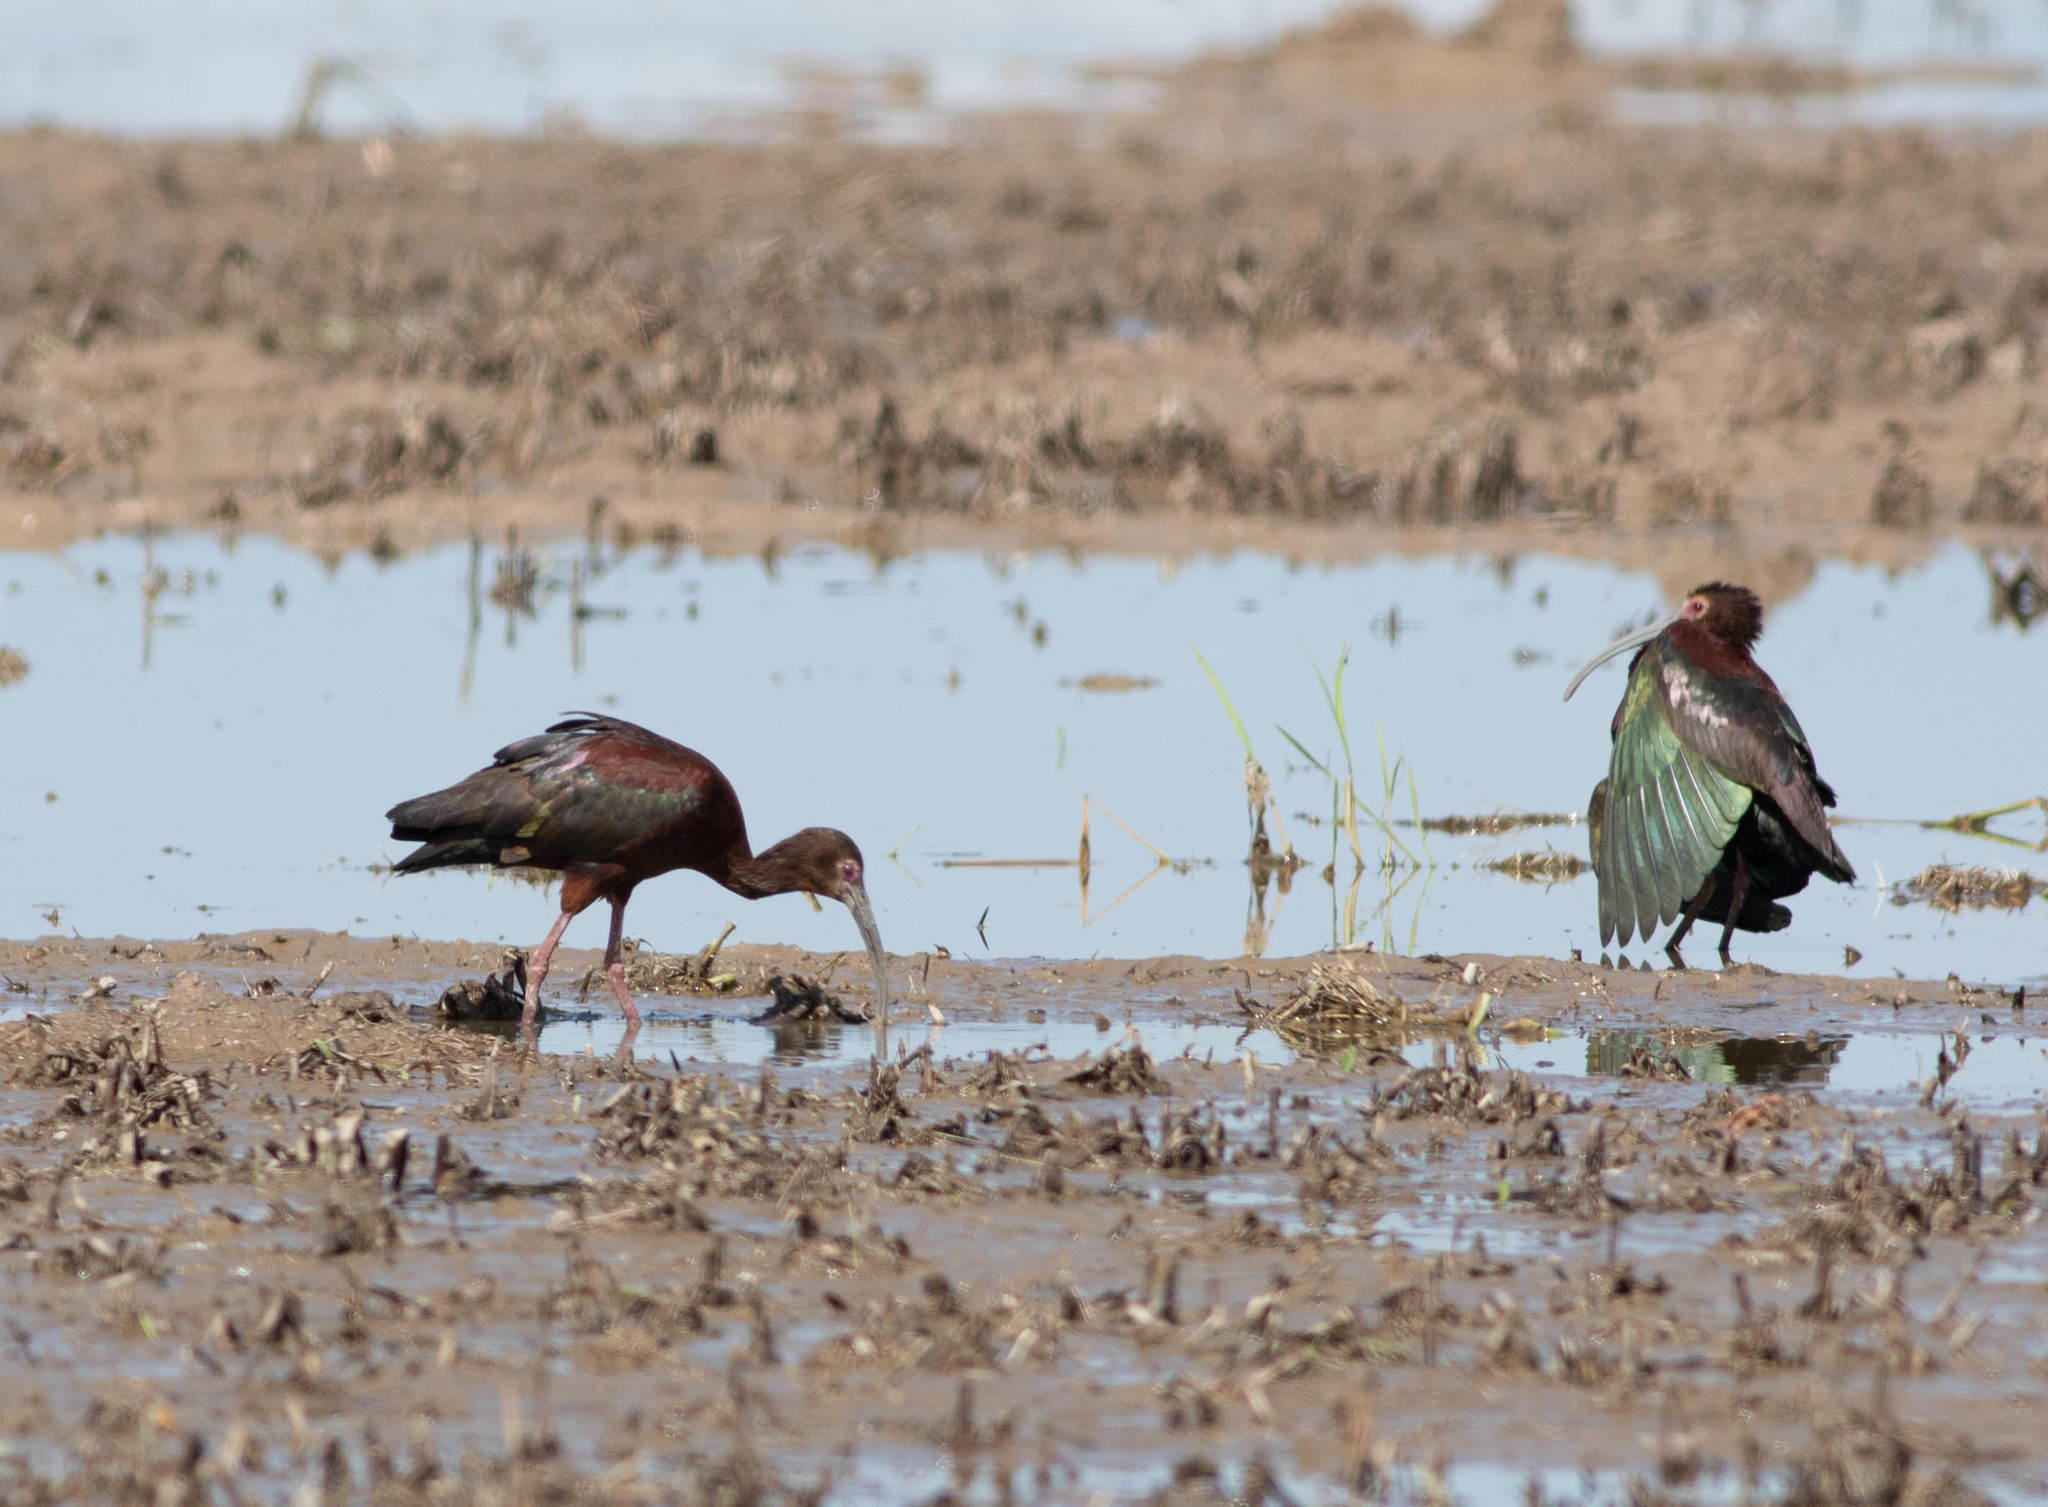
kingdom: Animalia
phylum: Chordata
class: Aves
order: Pelecaniformes
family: Threskiornithidae
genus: Plegadis
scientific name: Plegadis chihi
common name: White-faced ibis
